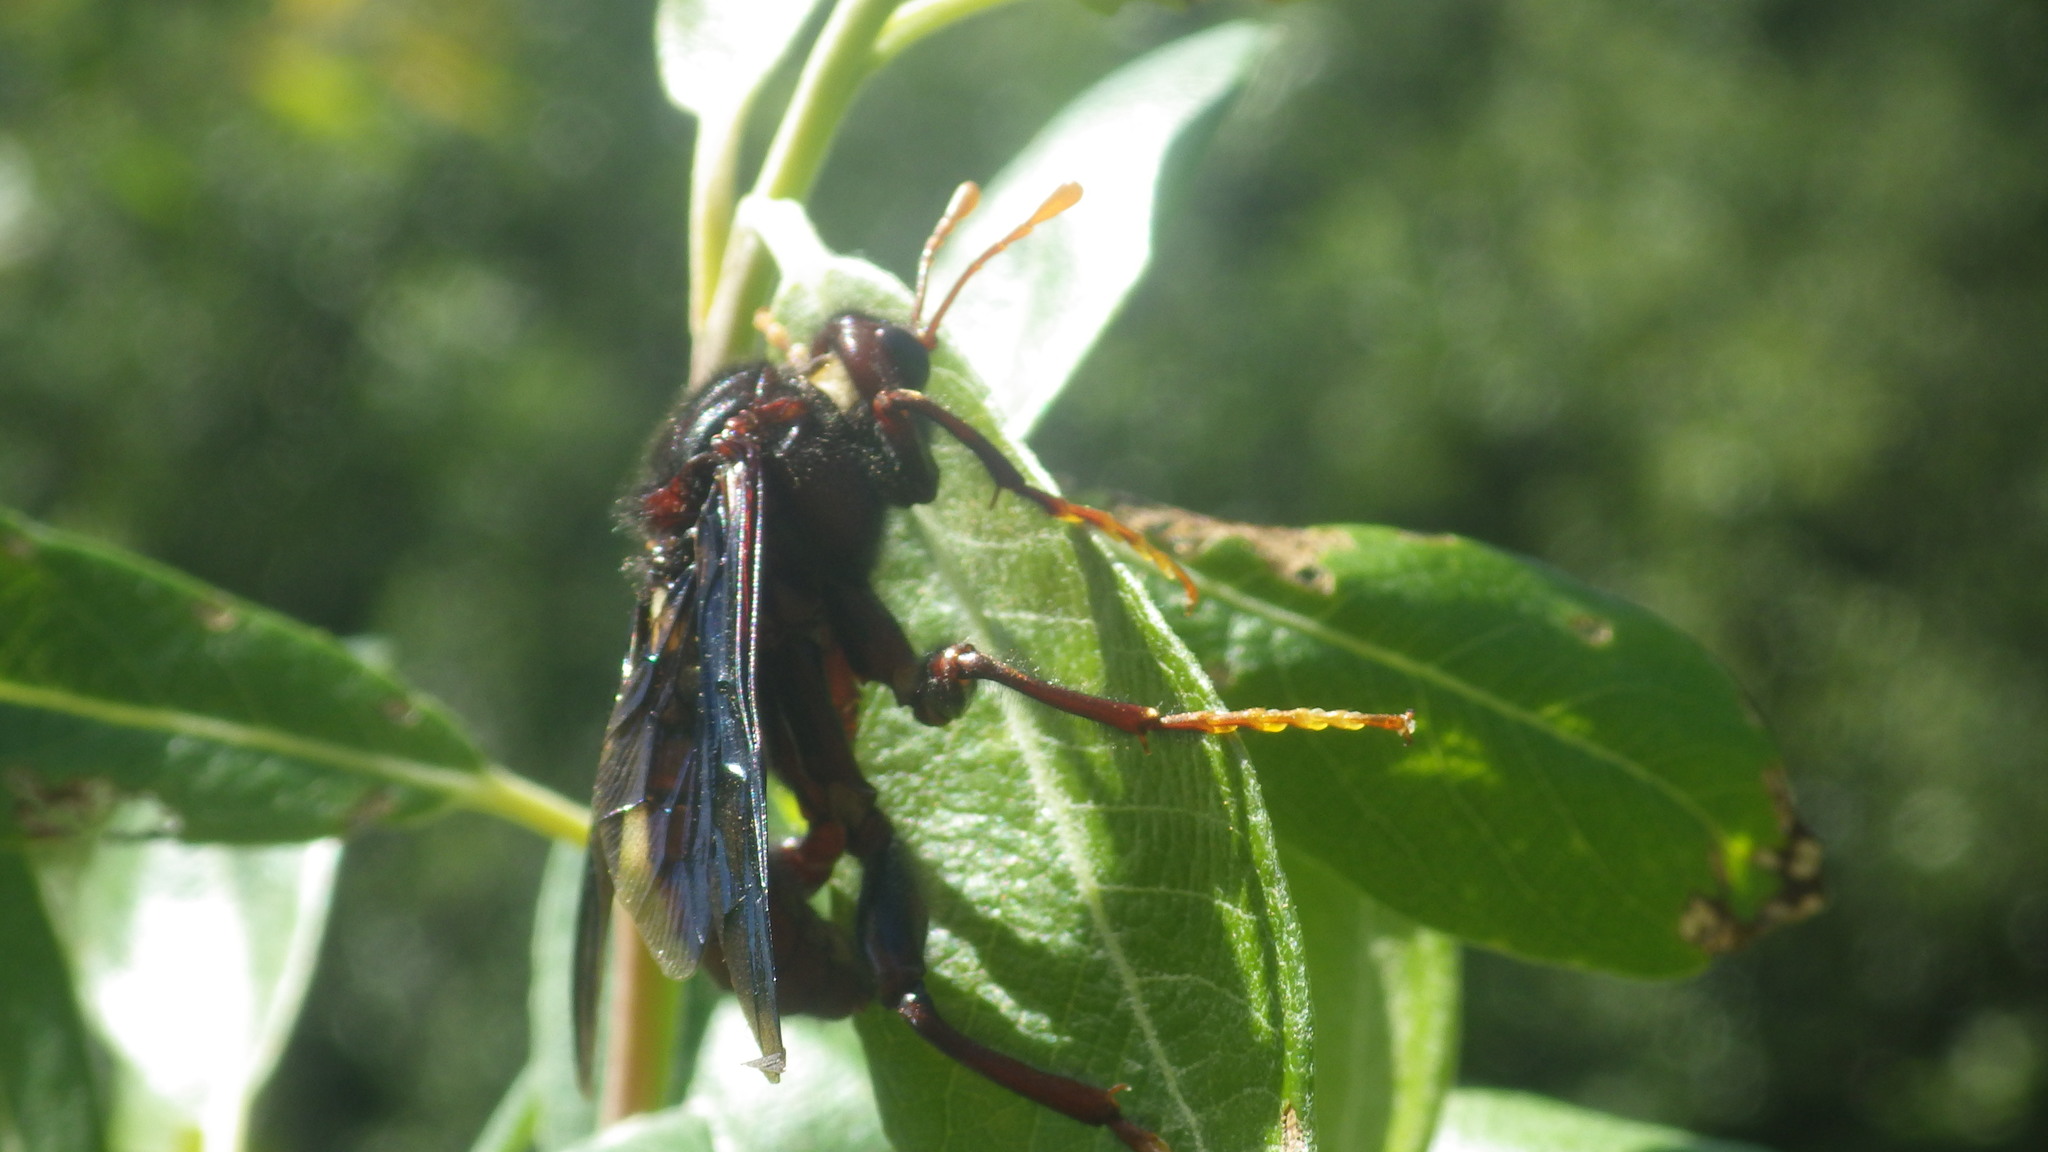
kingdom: Animalia
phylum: Arthropoda
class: Insecta
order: Hymenoptera
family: Cimbicidae
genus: Cimbex
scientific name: Cimbex
